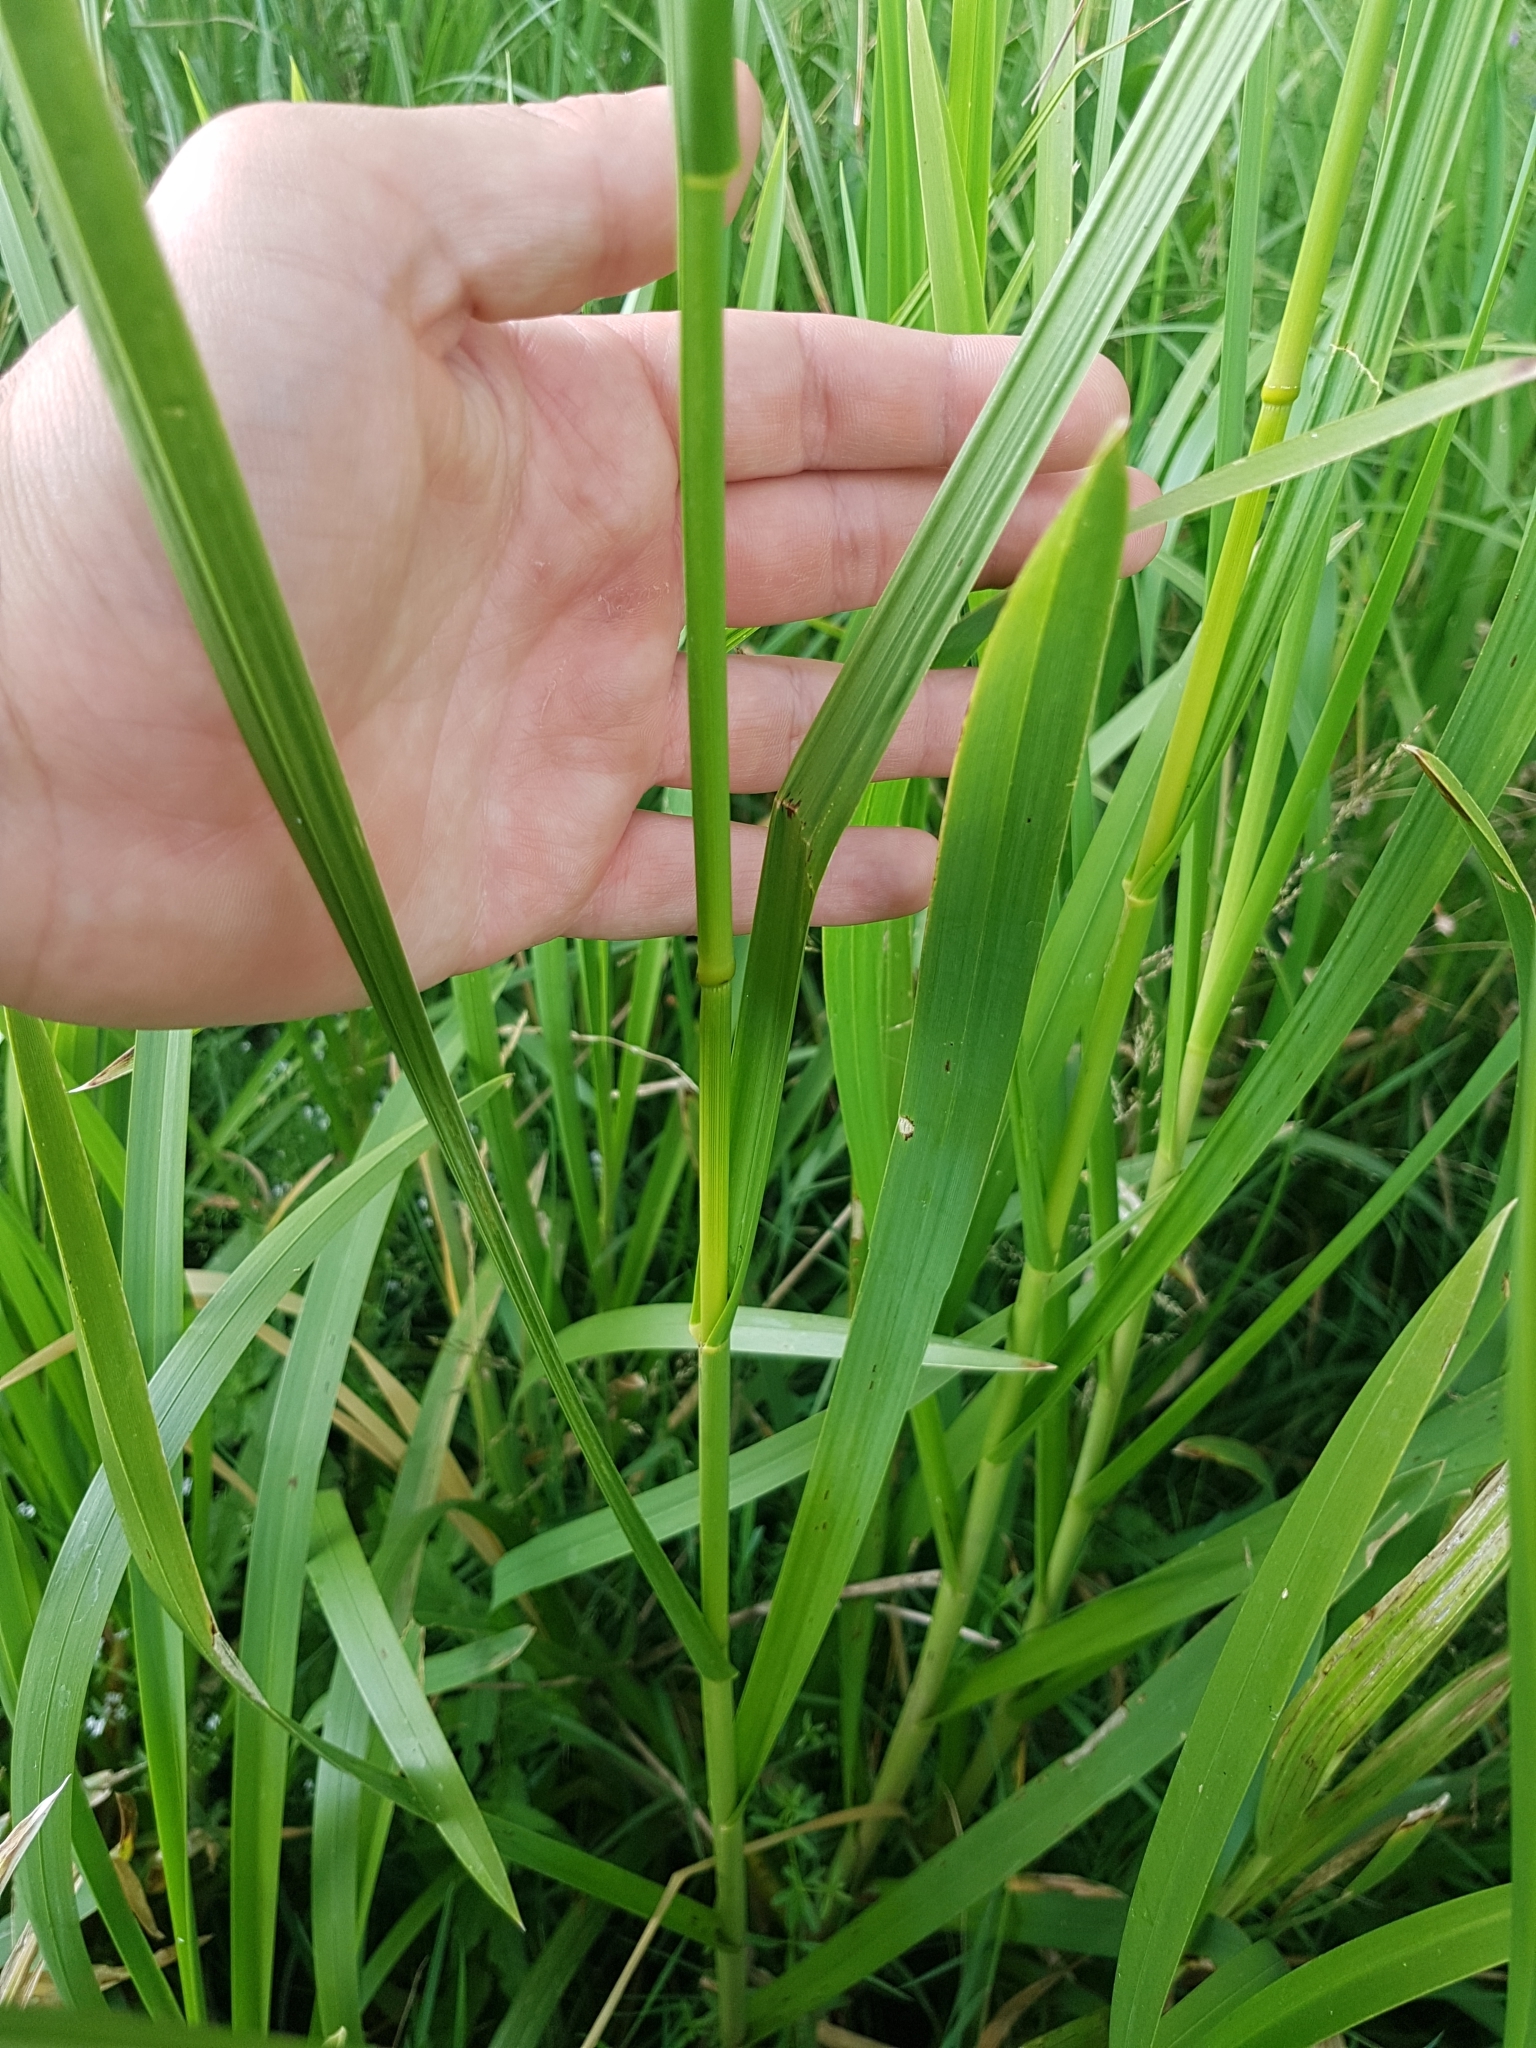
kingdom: Plantae
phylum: Tracheophyta
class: Liliopsida
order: Poales
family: Poaceae
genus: Glyceria
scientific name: Glyceria maxima
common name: Reed mannagrass
